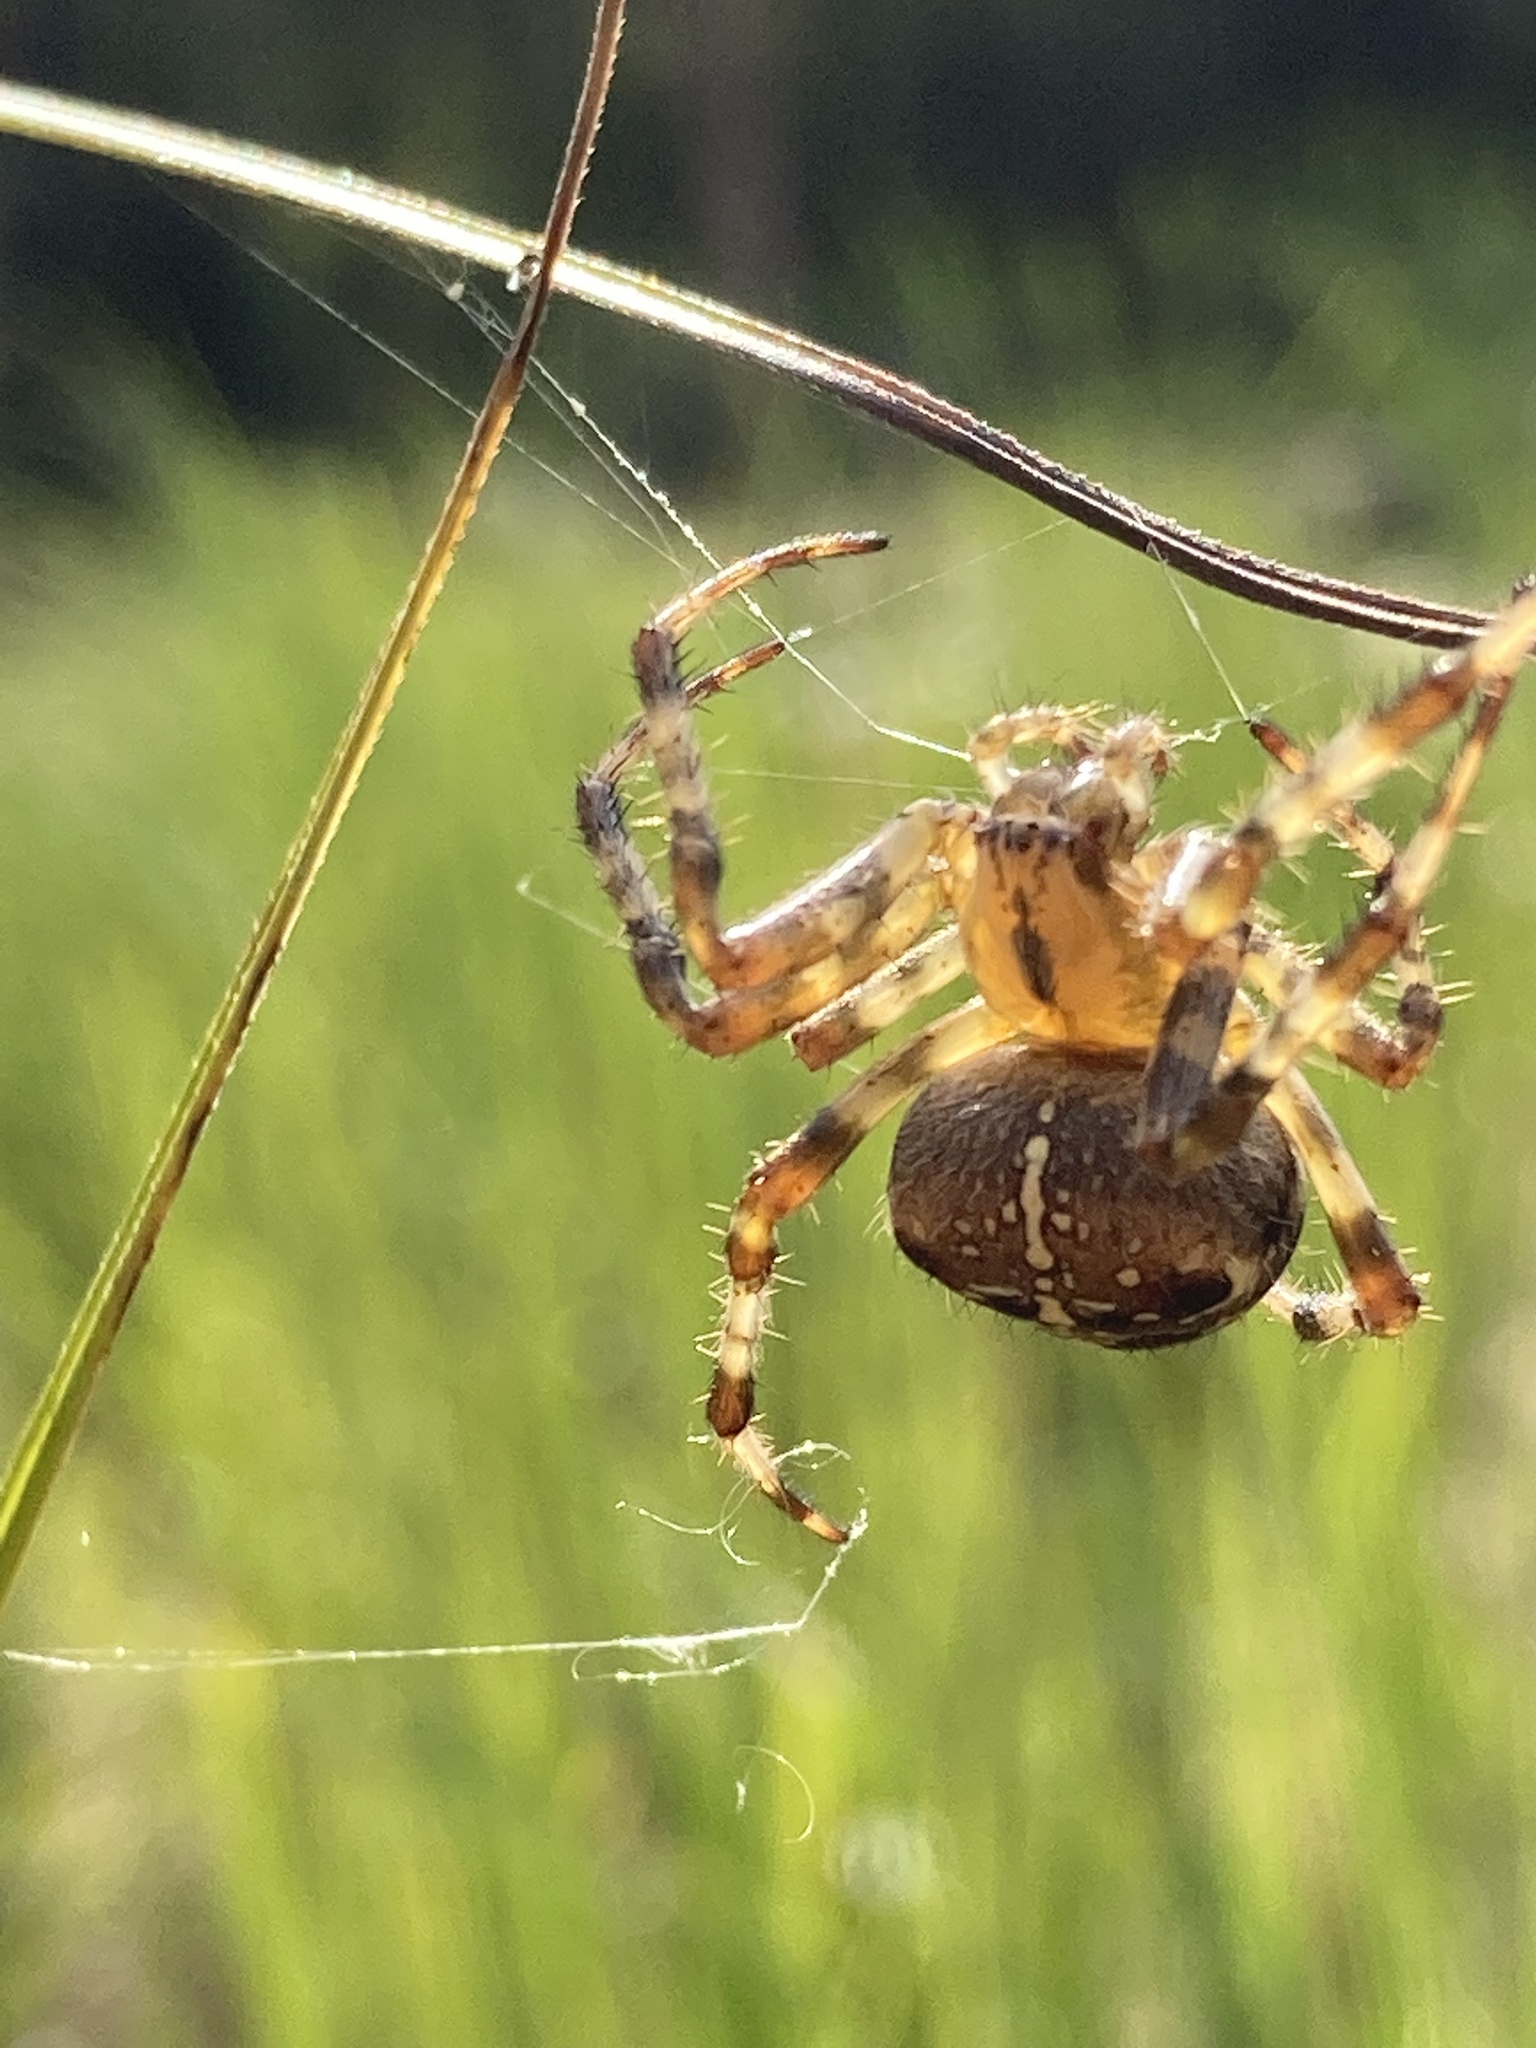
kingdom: Animalia
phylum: Arthropoda
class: Arachnida
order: Araneae
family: Araneidae
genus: Araneus
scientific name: Araneus diadematus
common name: Cross orbweaver
